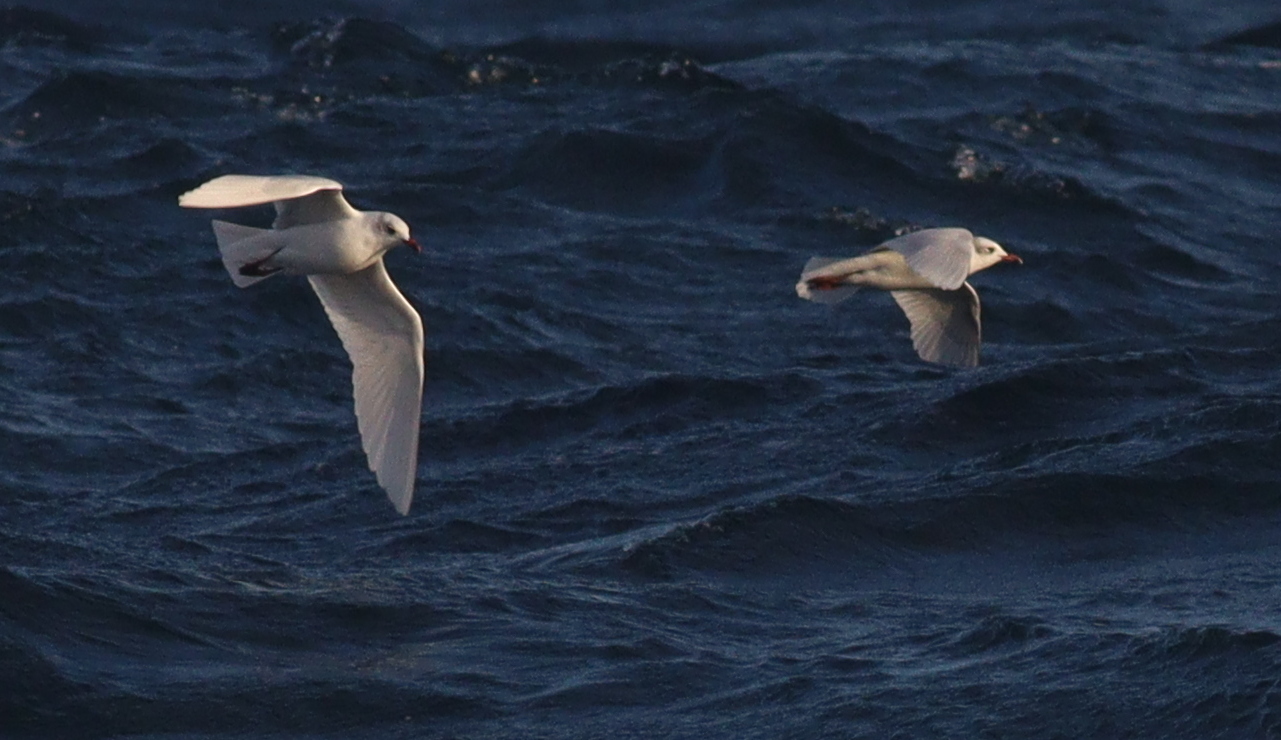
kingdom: Animalia
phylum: Chordata
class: Aves
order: Charadriiformes
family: Laridae
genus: Ichthyaetus
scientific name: Ichthyaetus melanocephalus
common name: Mediterranean gull
